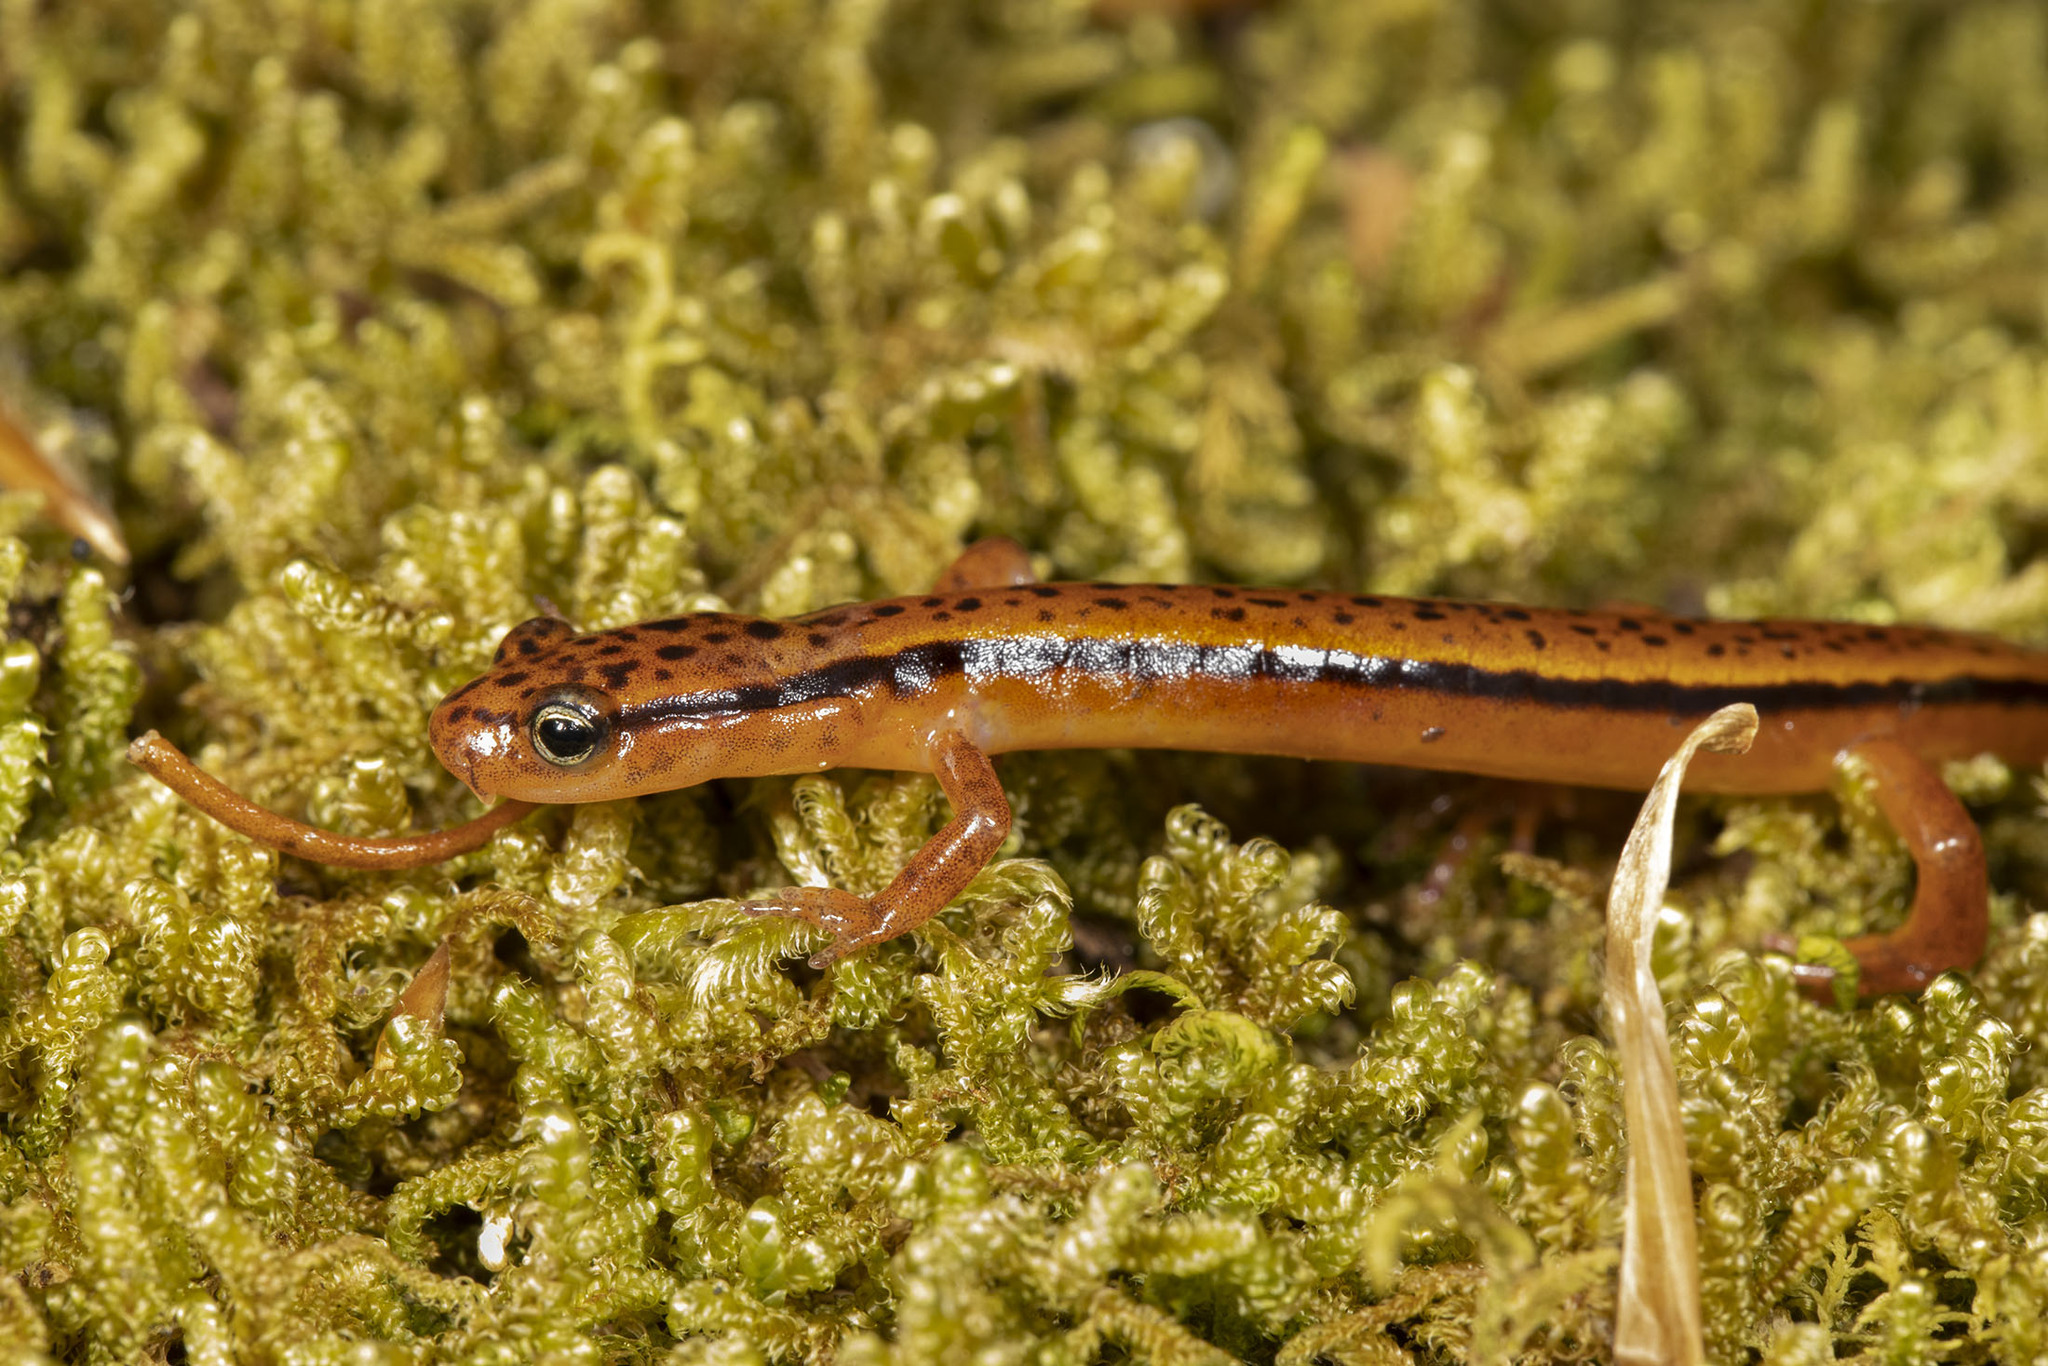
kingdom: Animalia
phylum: Chordata
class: Amphibia
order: Caudata
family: Plethodontidae
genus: Eurycea
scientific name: Eurycea wilderae
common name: Blue ridge two-lined salamander
